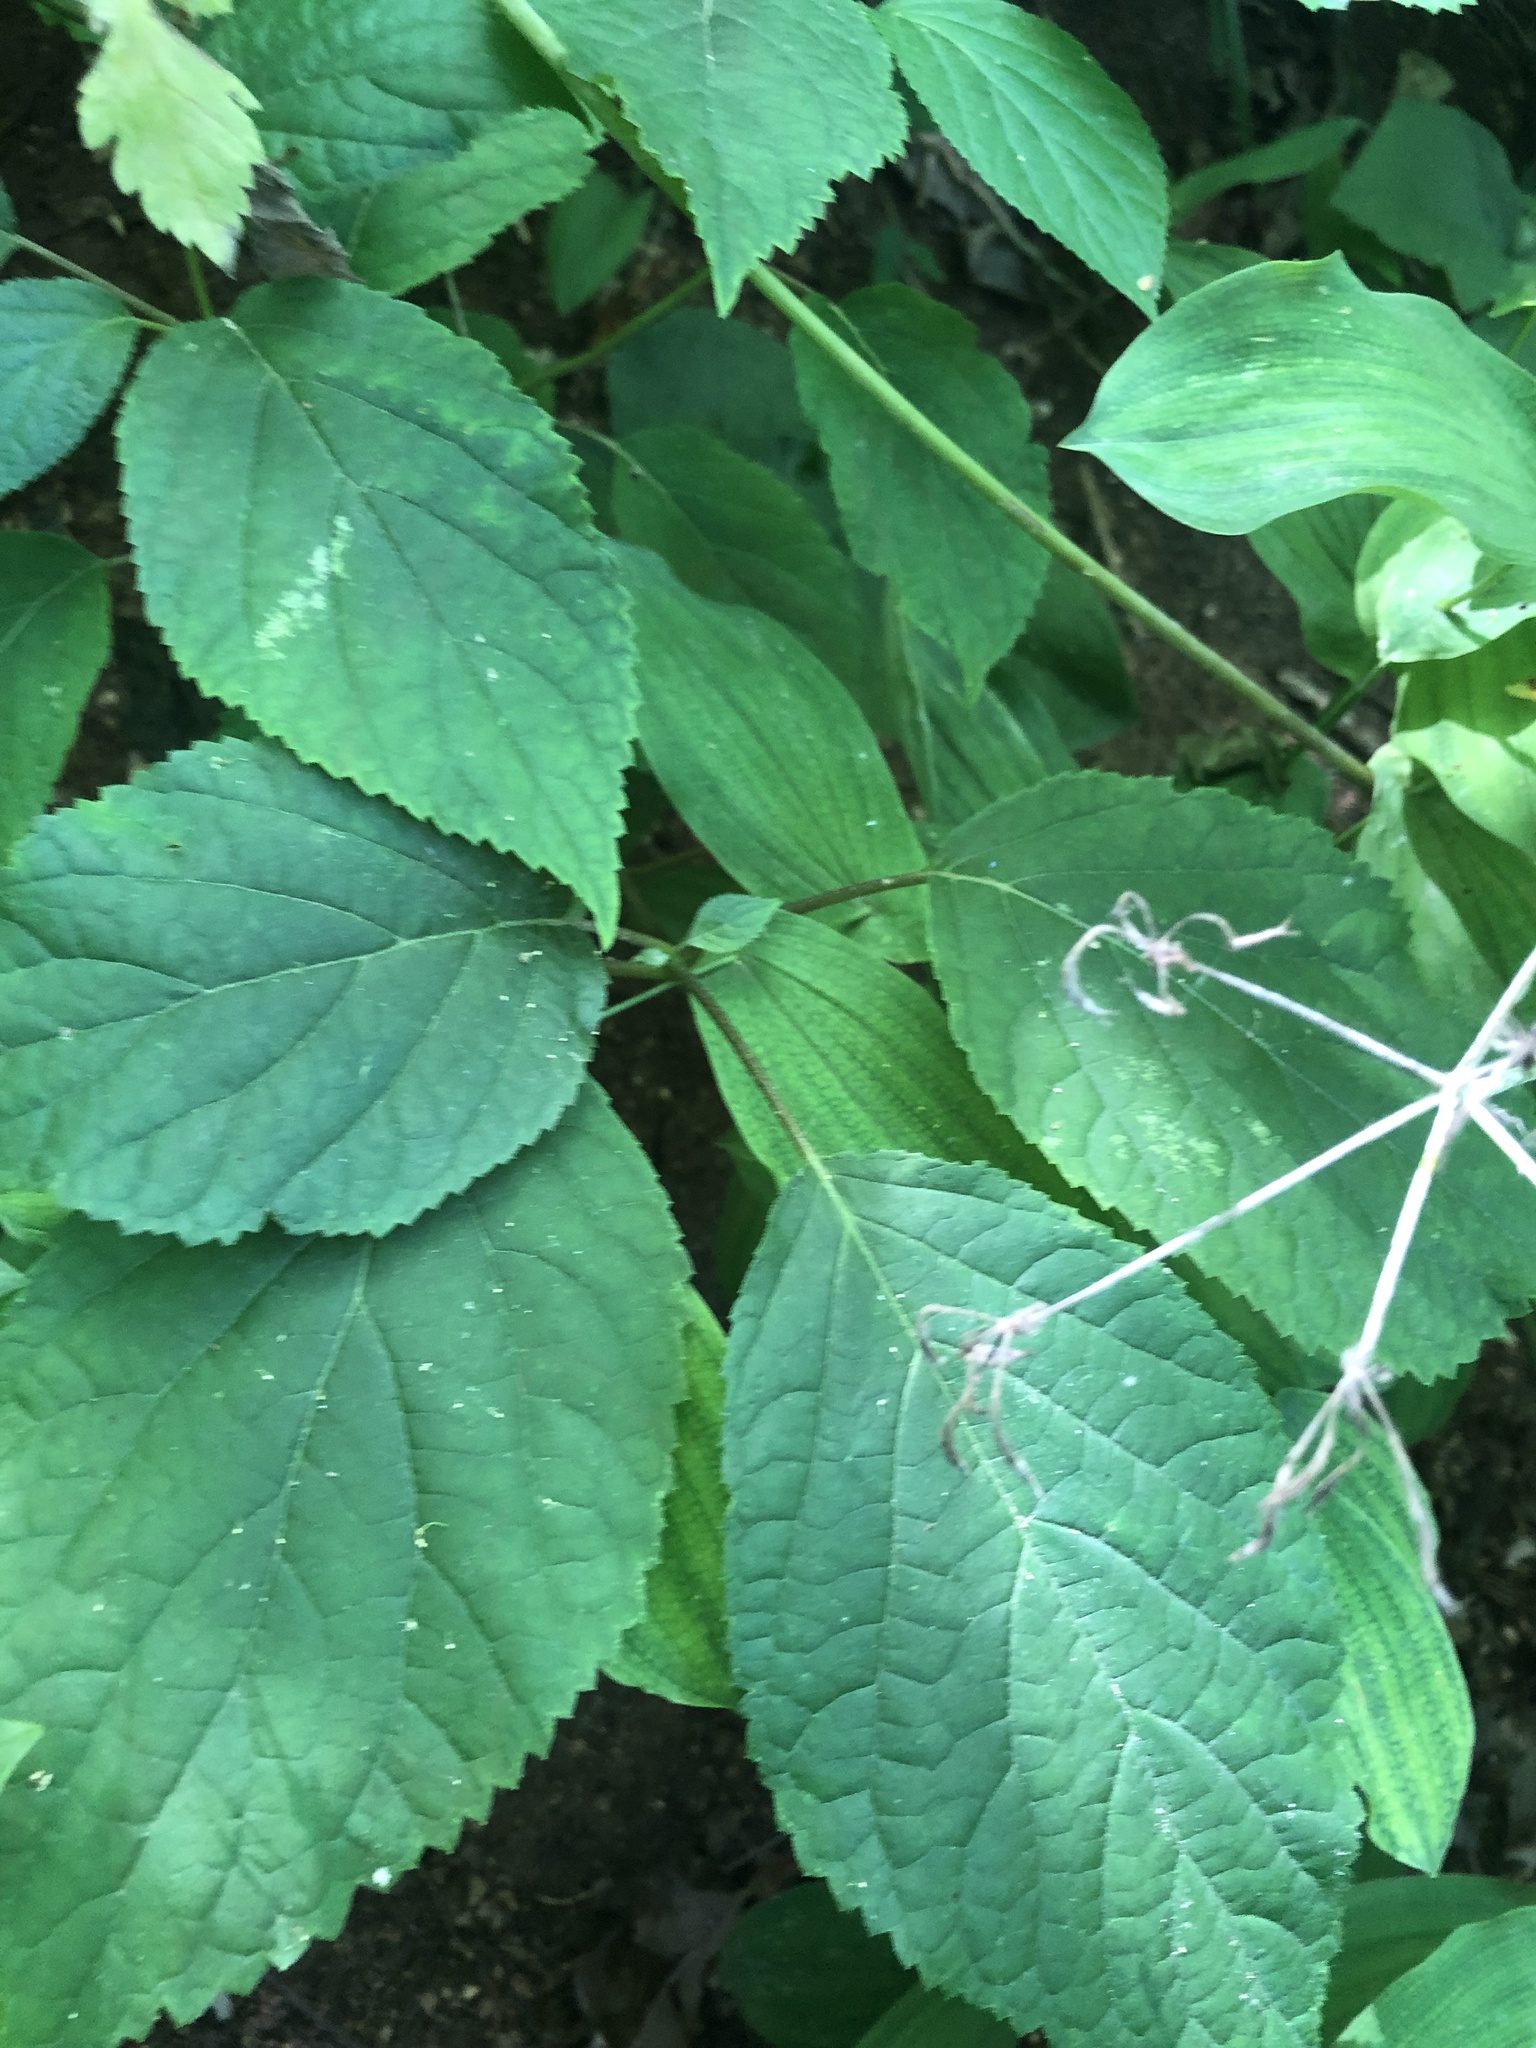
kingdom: Plantae
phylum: Tracheophyta
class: Magnoliopsida
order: Cornales
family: Hydrangeaceae
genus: Hydrangea
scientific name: Hydrangea arborescens
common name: Sevenbark
